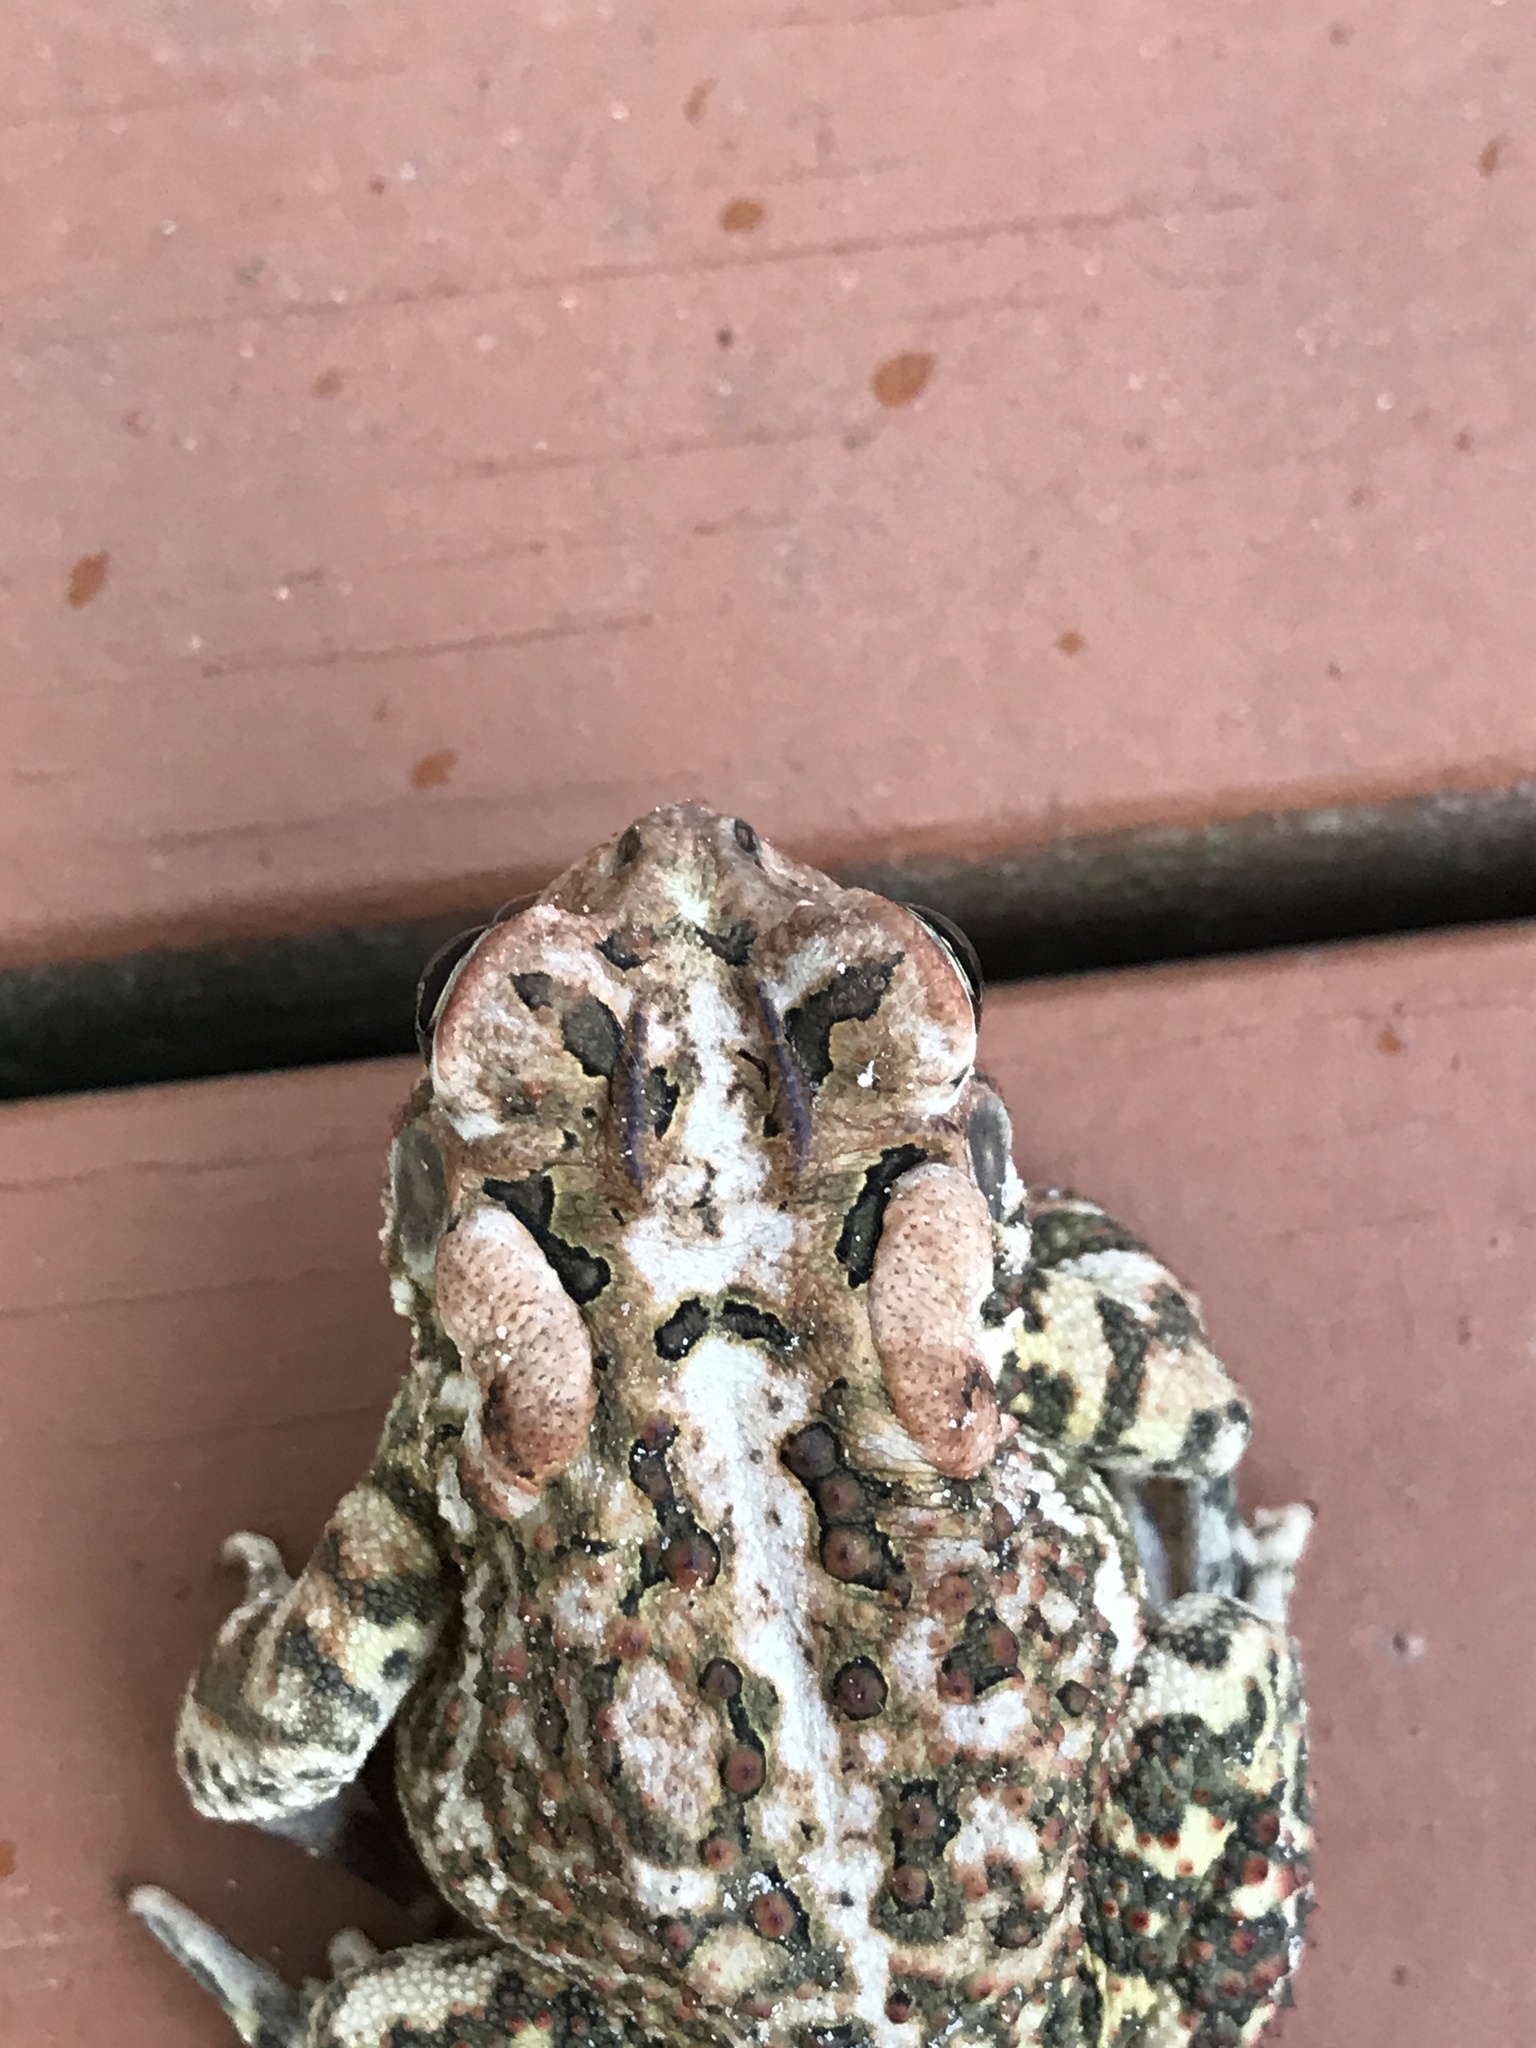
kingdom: Animalia
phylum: Chordata
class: Amphibia
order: Anura
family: Bufonidae
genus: Anaxyrus
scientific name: Anaxyrus terrestris
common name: Southern toad
